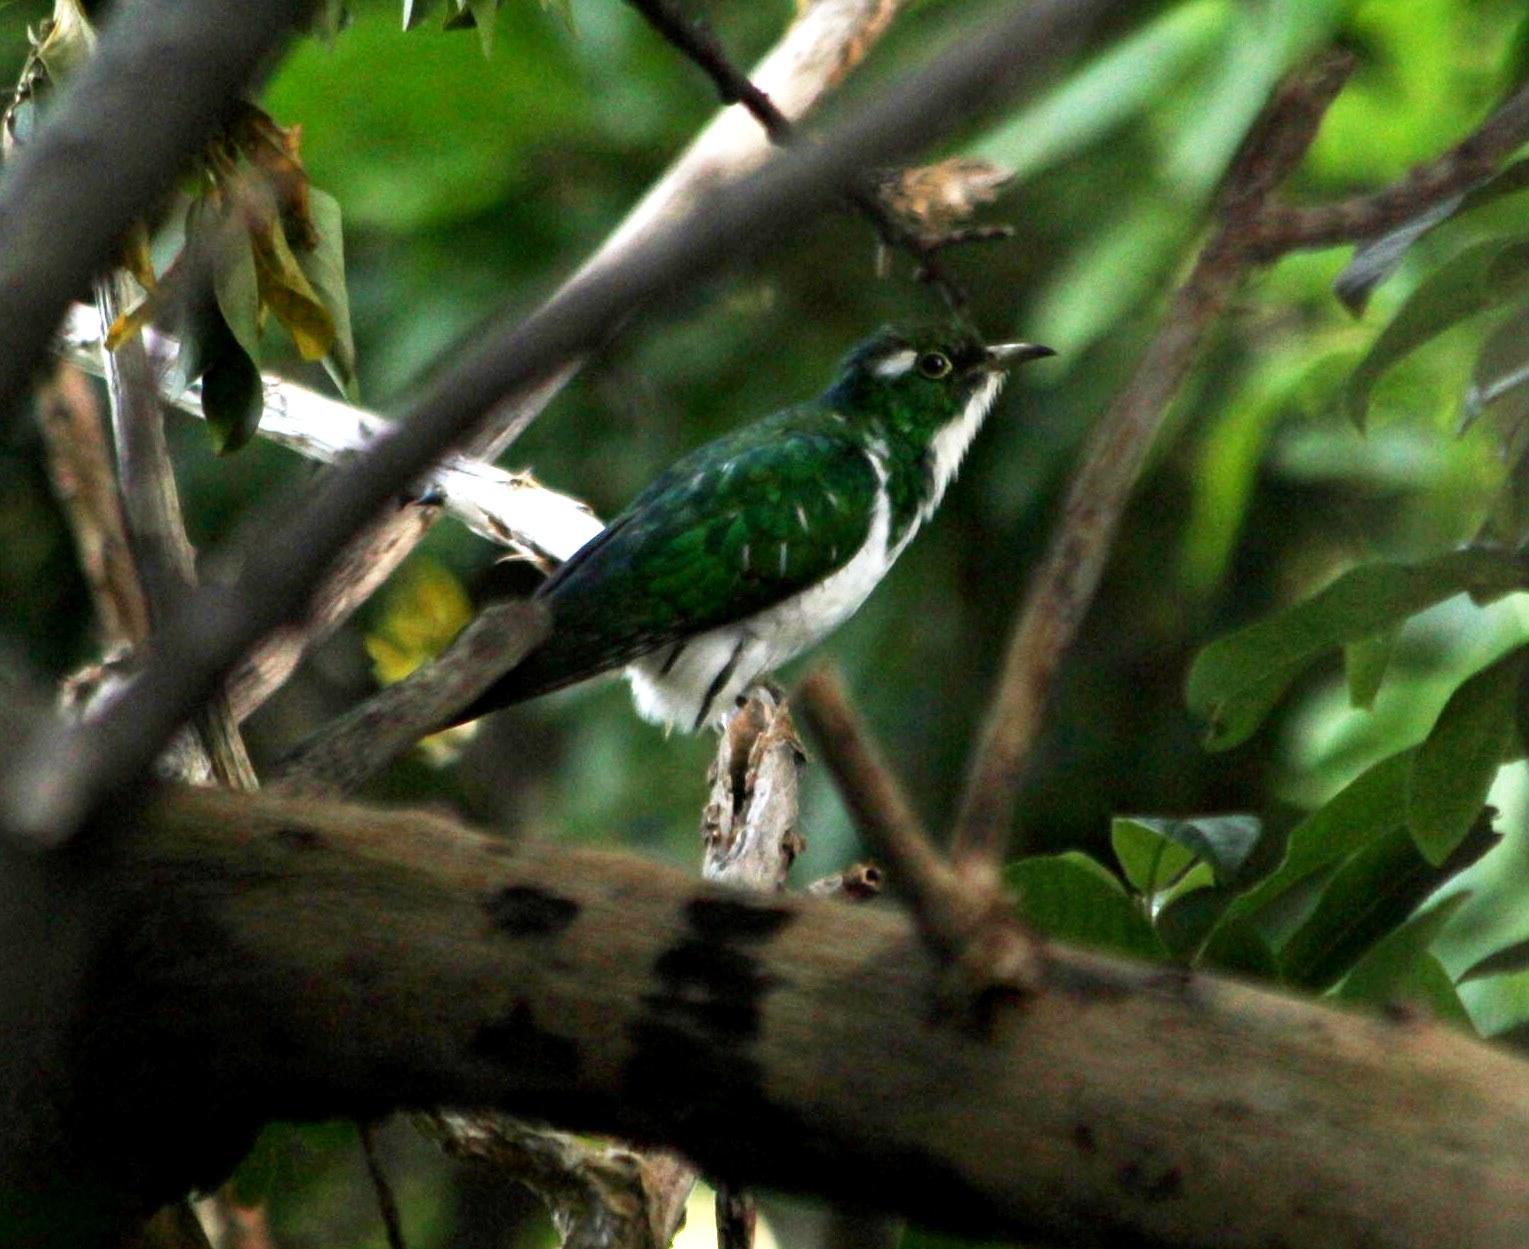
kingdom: Animalia
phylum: Chordata
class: Aves
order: Cuculiformes
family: Cuculidae
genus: Chrysococcyx
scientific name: Chrysococcyx klaas
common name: Klaas's cuckoo
